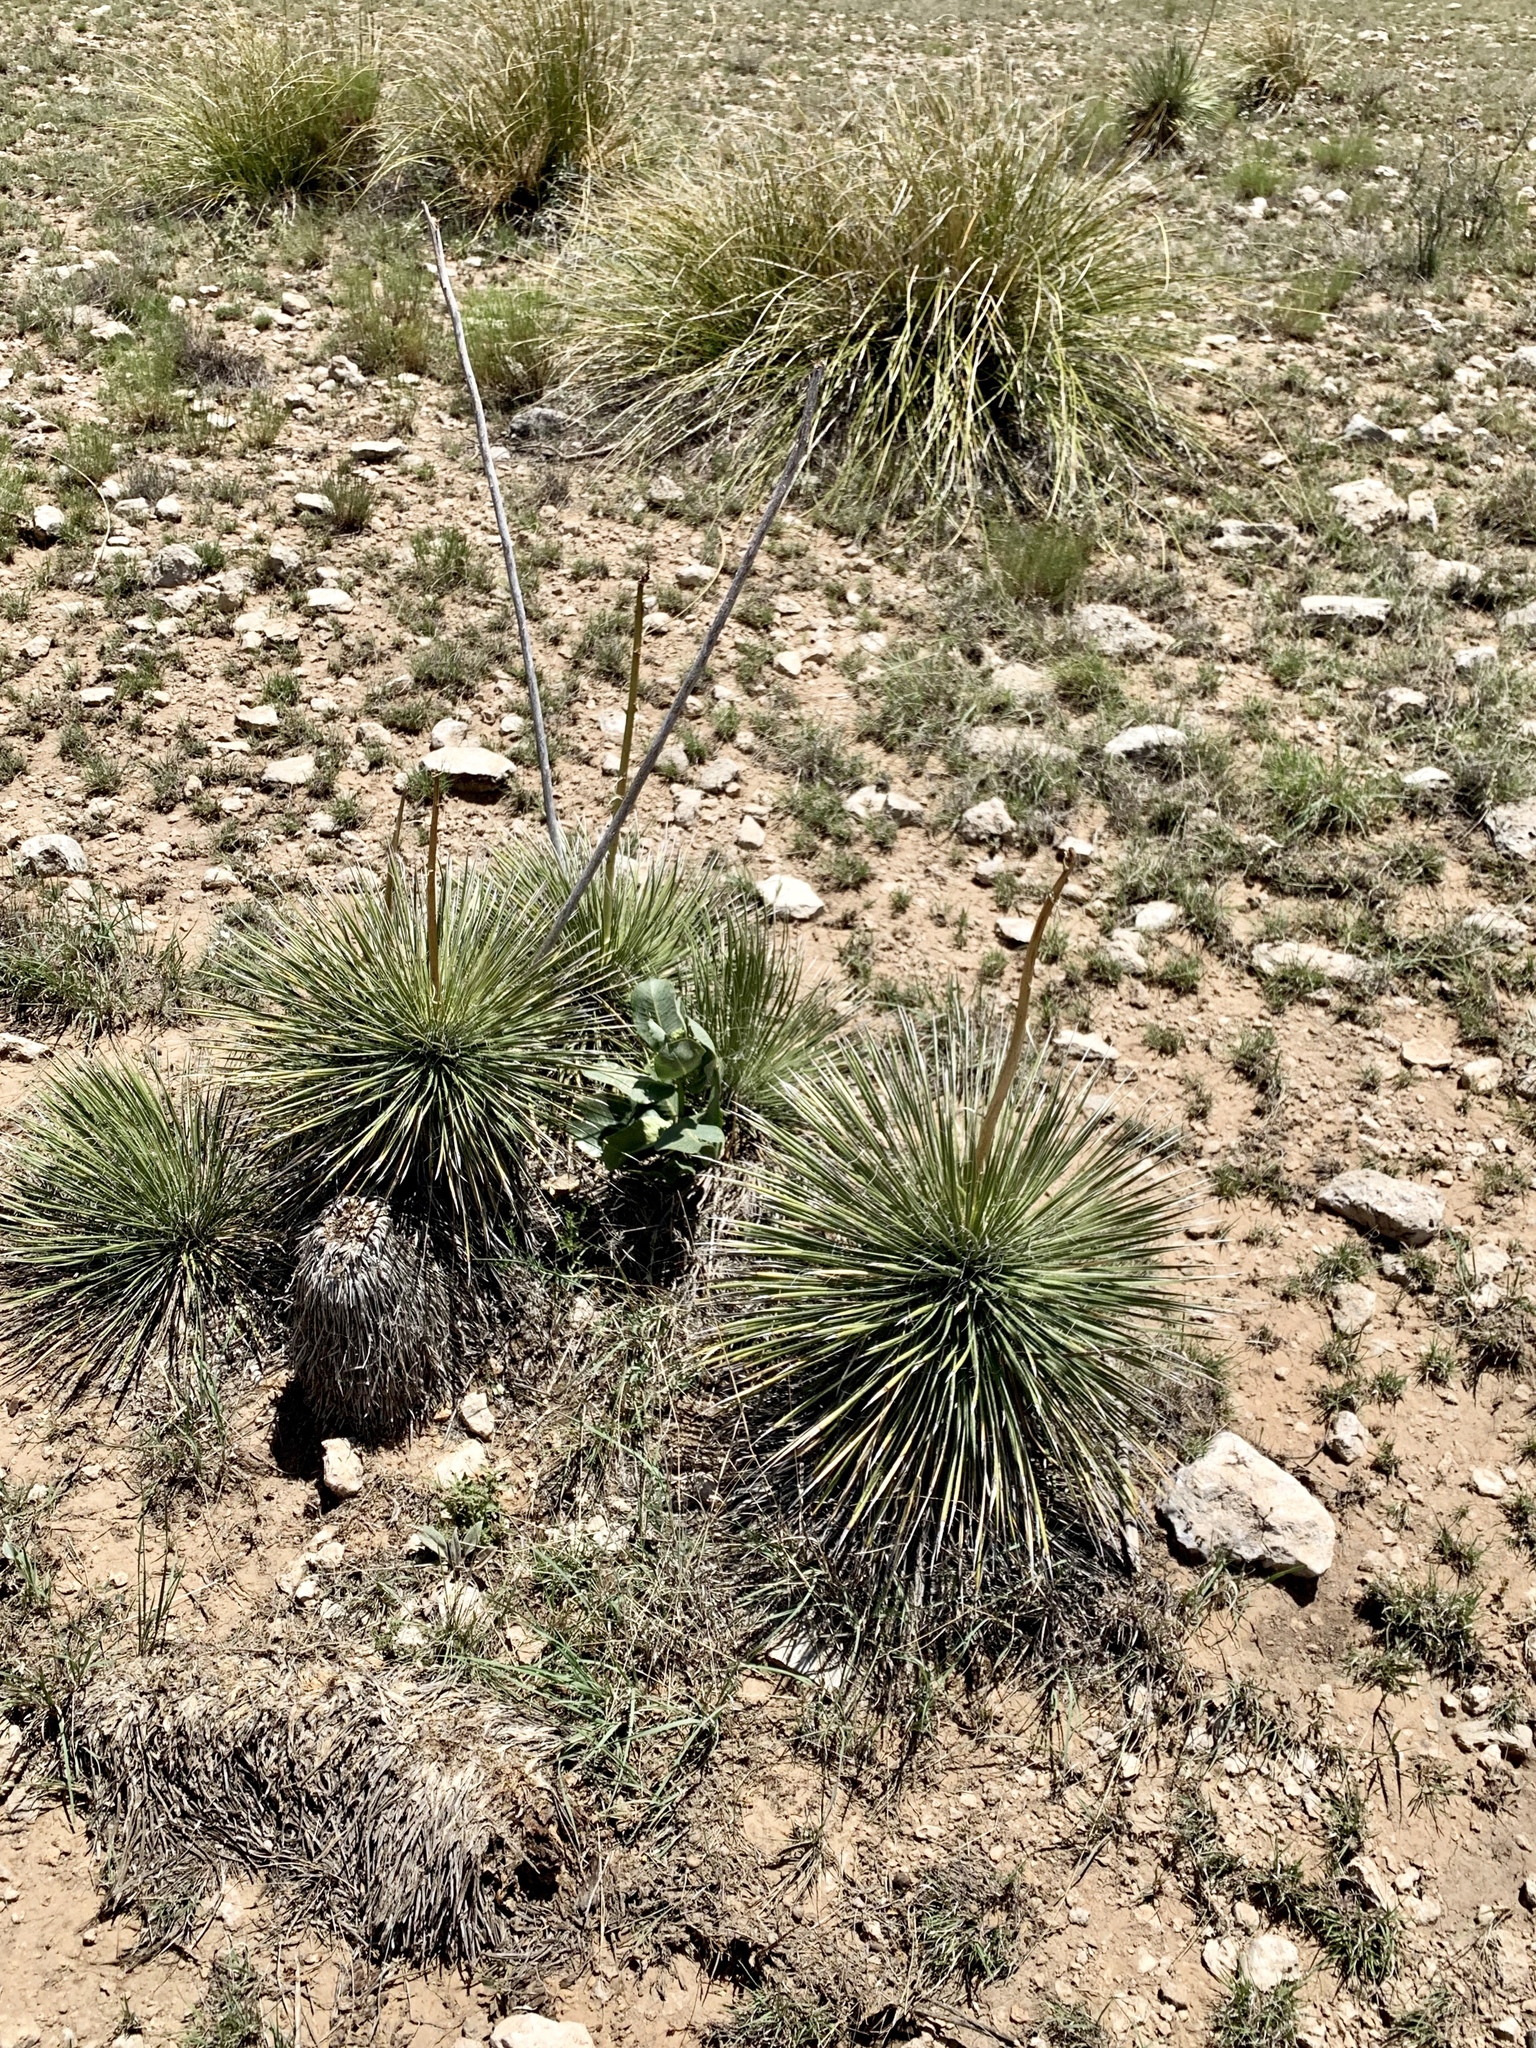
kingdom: Plantae
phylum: Tracheophyta
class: Liliopsida
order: Asparagales
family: Asparagaceae
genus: Yucca
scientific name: Yucca elata
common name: Palmella
